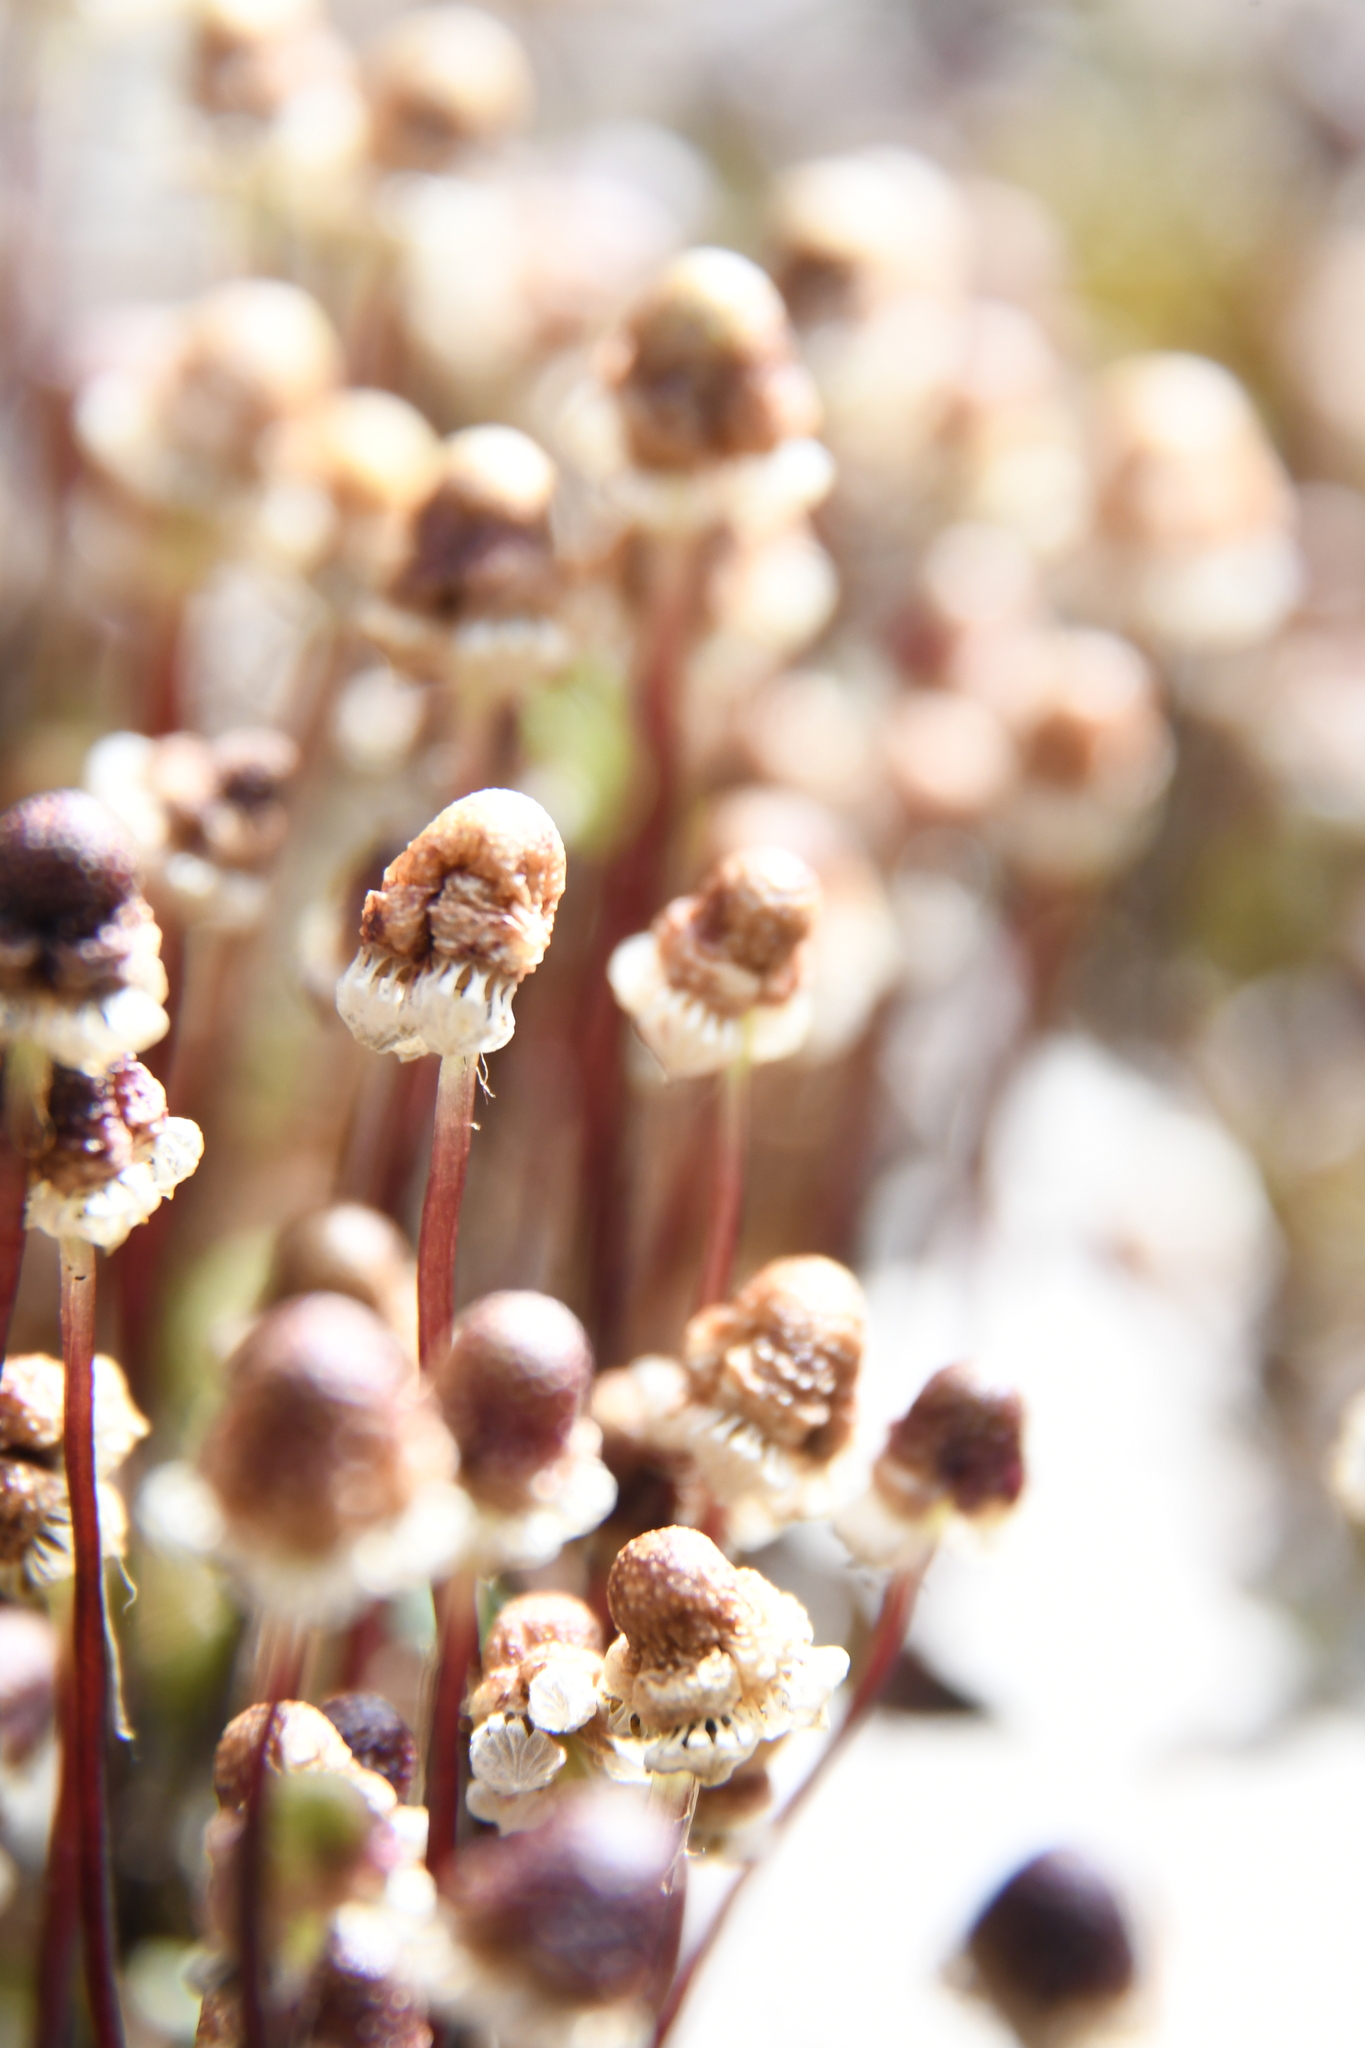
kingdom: Plantae
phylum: Marchantiophyta
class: Marchantiopsida
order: Marchantiales
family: Aytoniaceae
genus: Asterella
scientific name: Asterella drummondii
